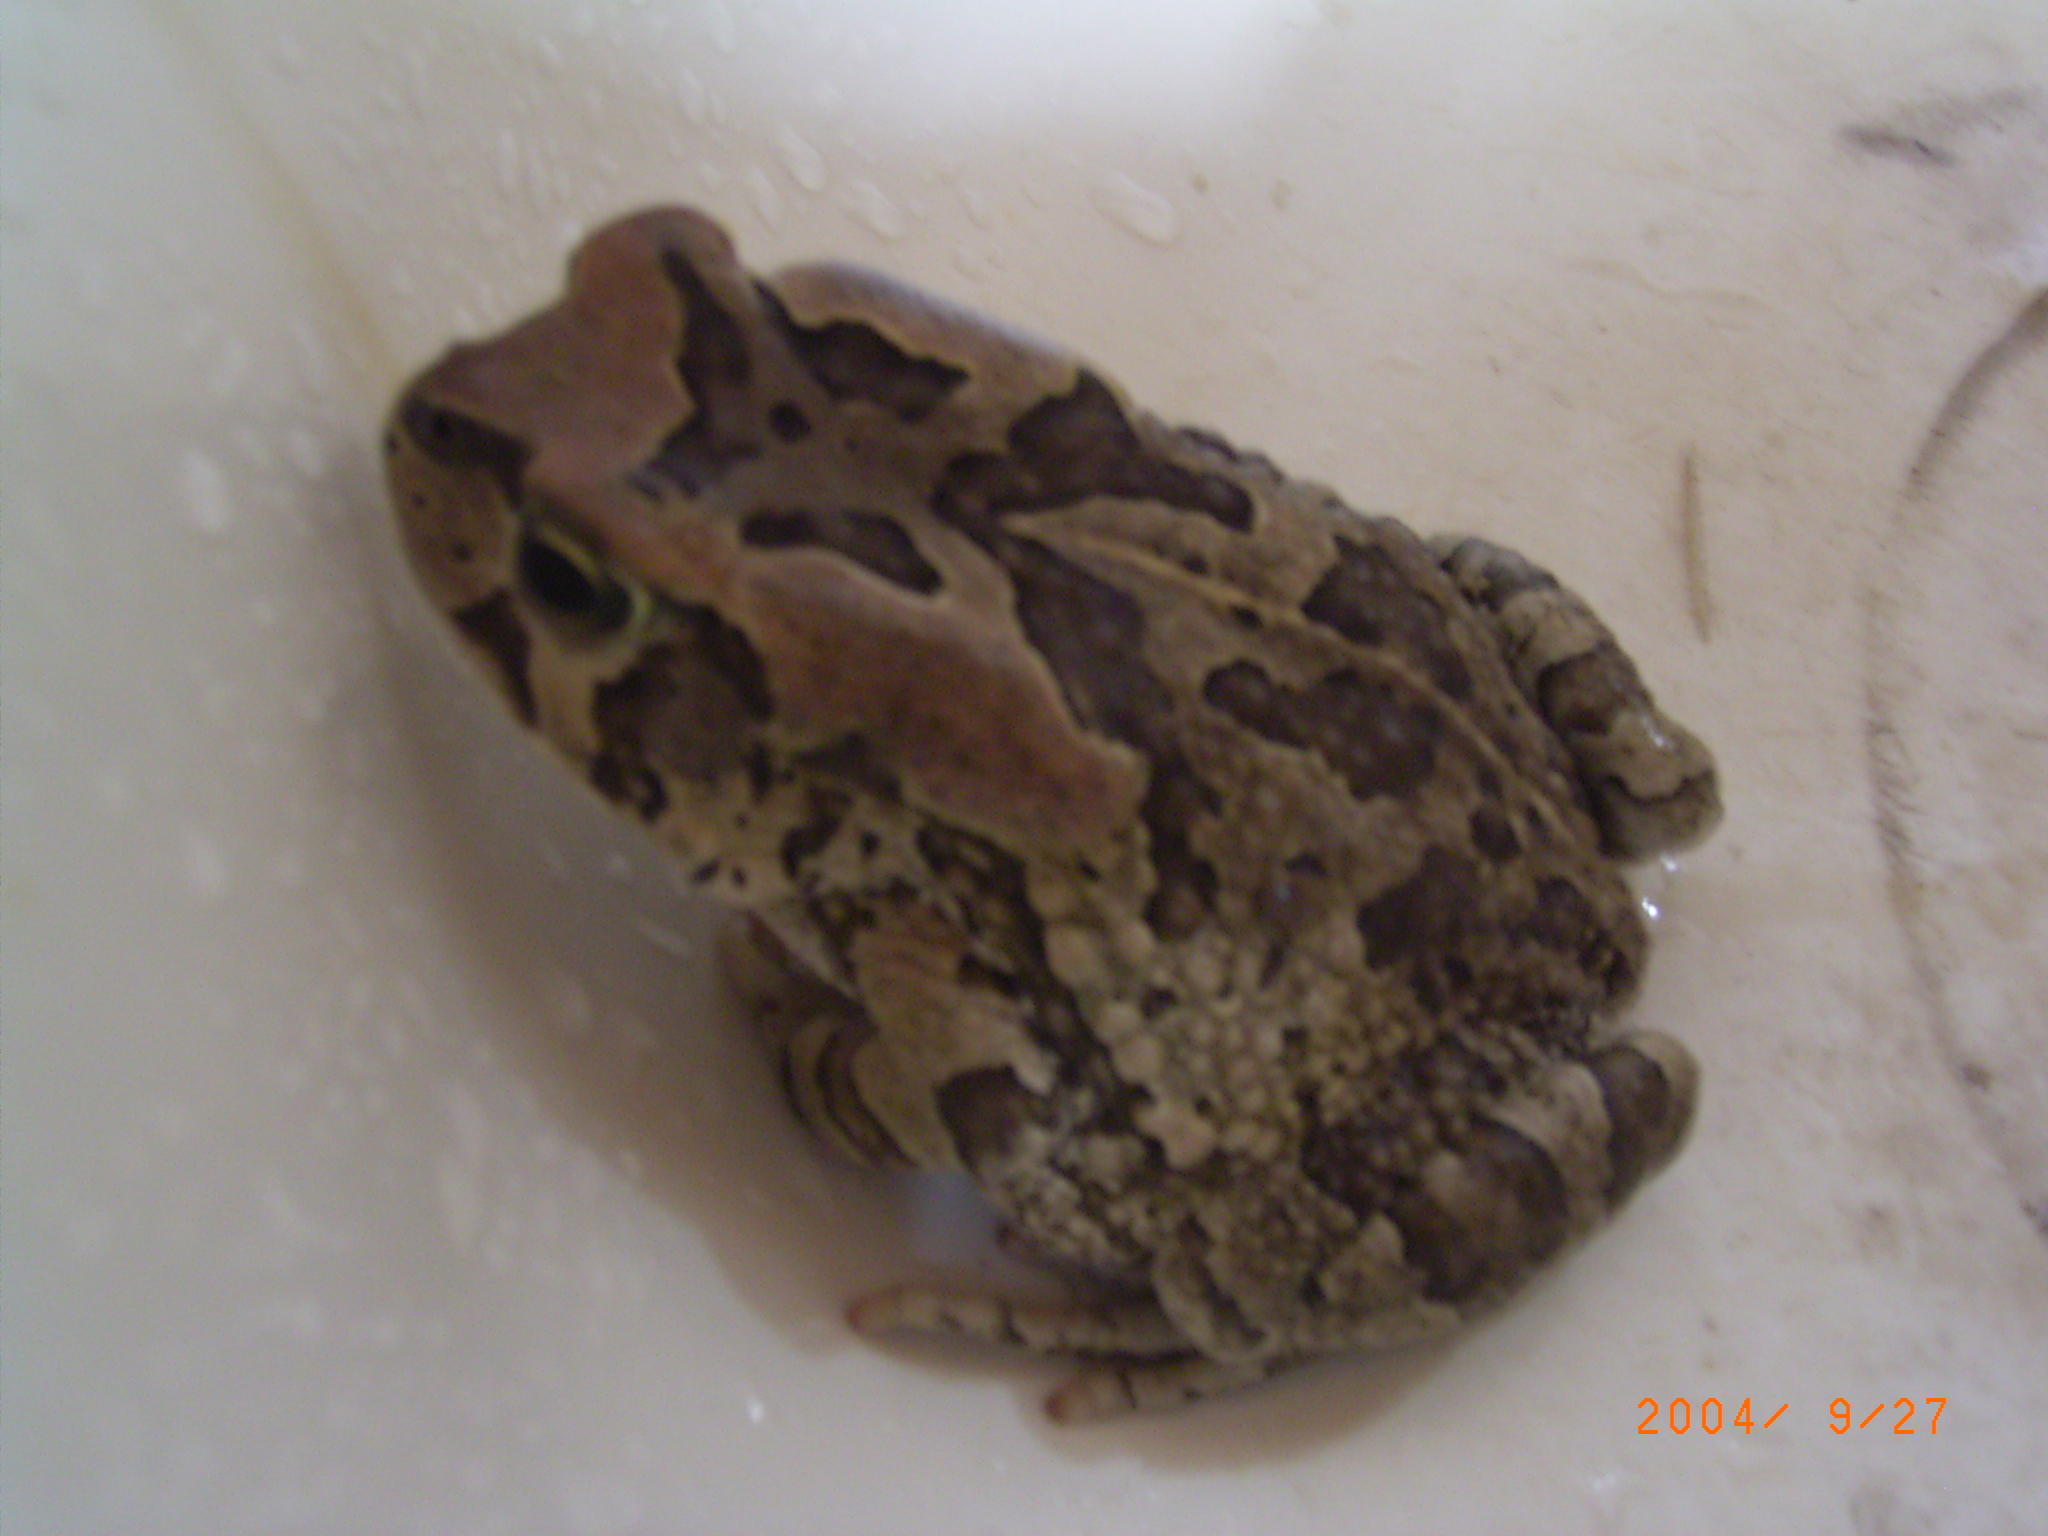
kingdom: Animalia
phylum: Chordata
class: Amphibia
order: Anura
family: Bufonidae
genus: Sclerophrys
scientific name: Sclerophrys capensis
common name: Ranger’s toad
